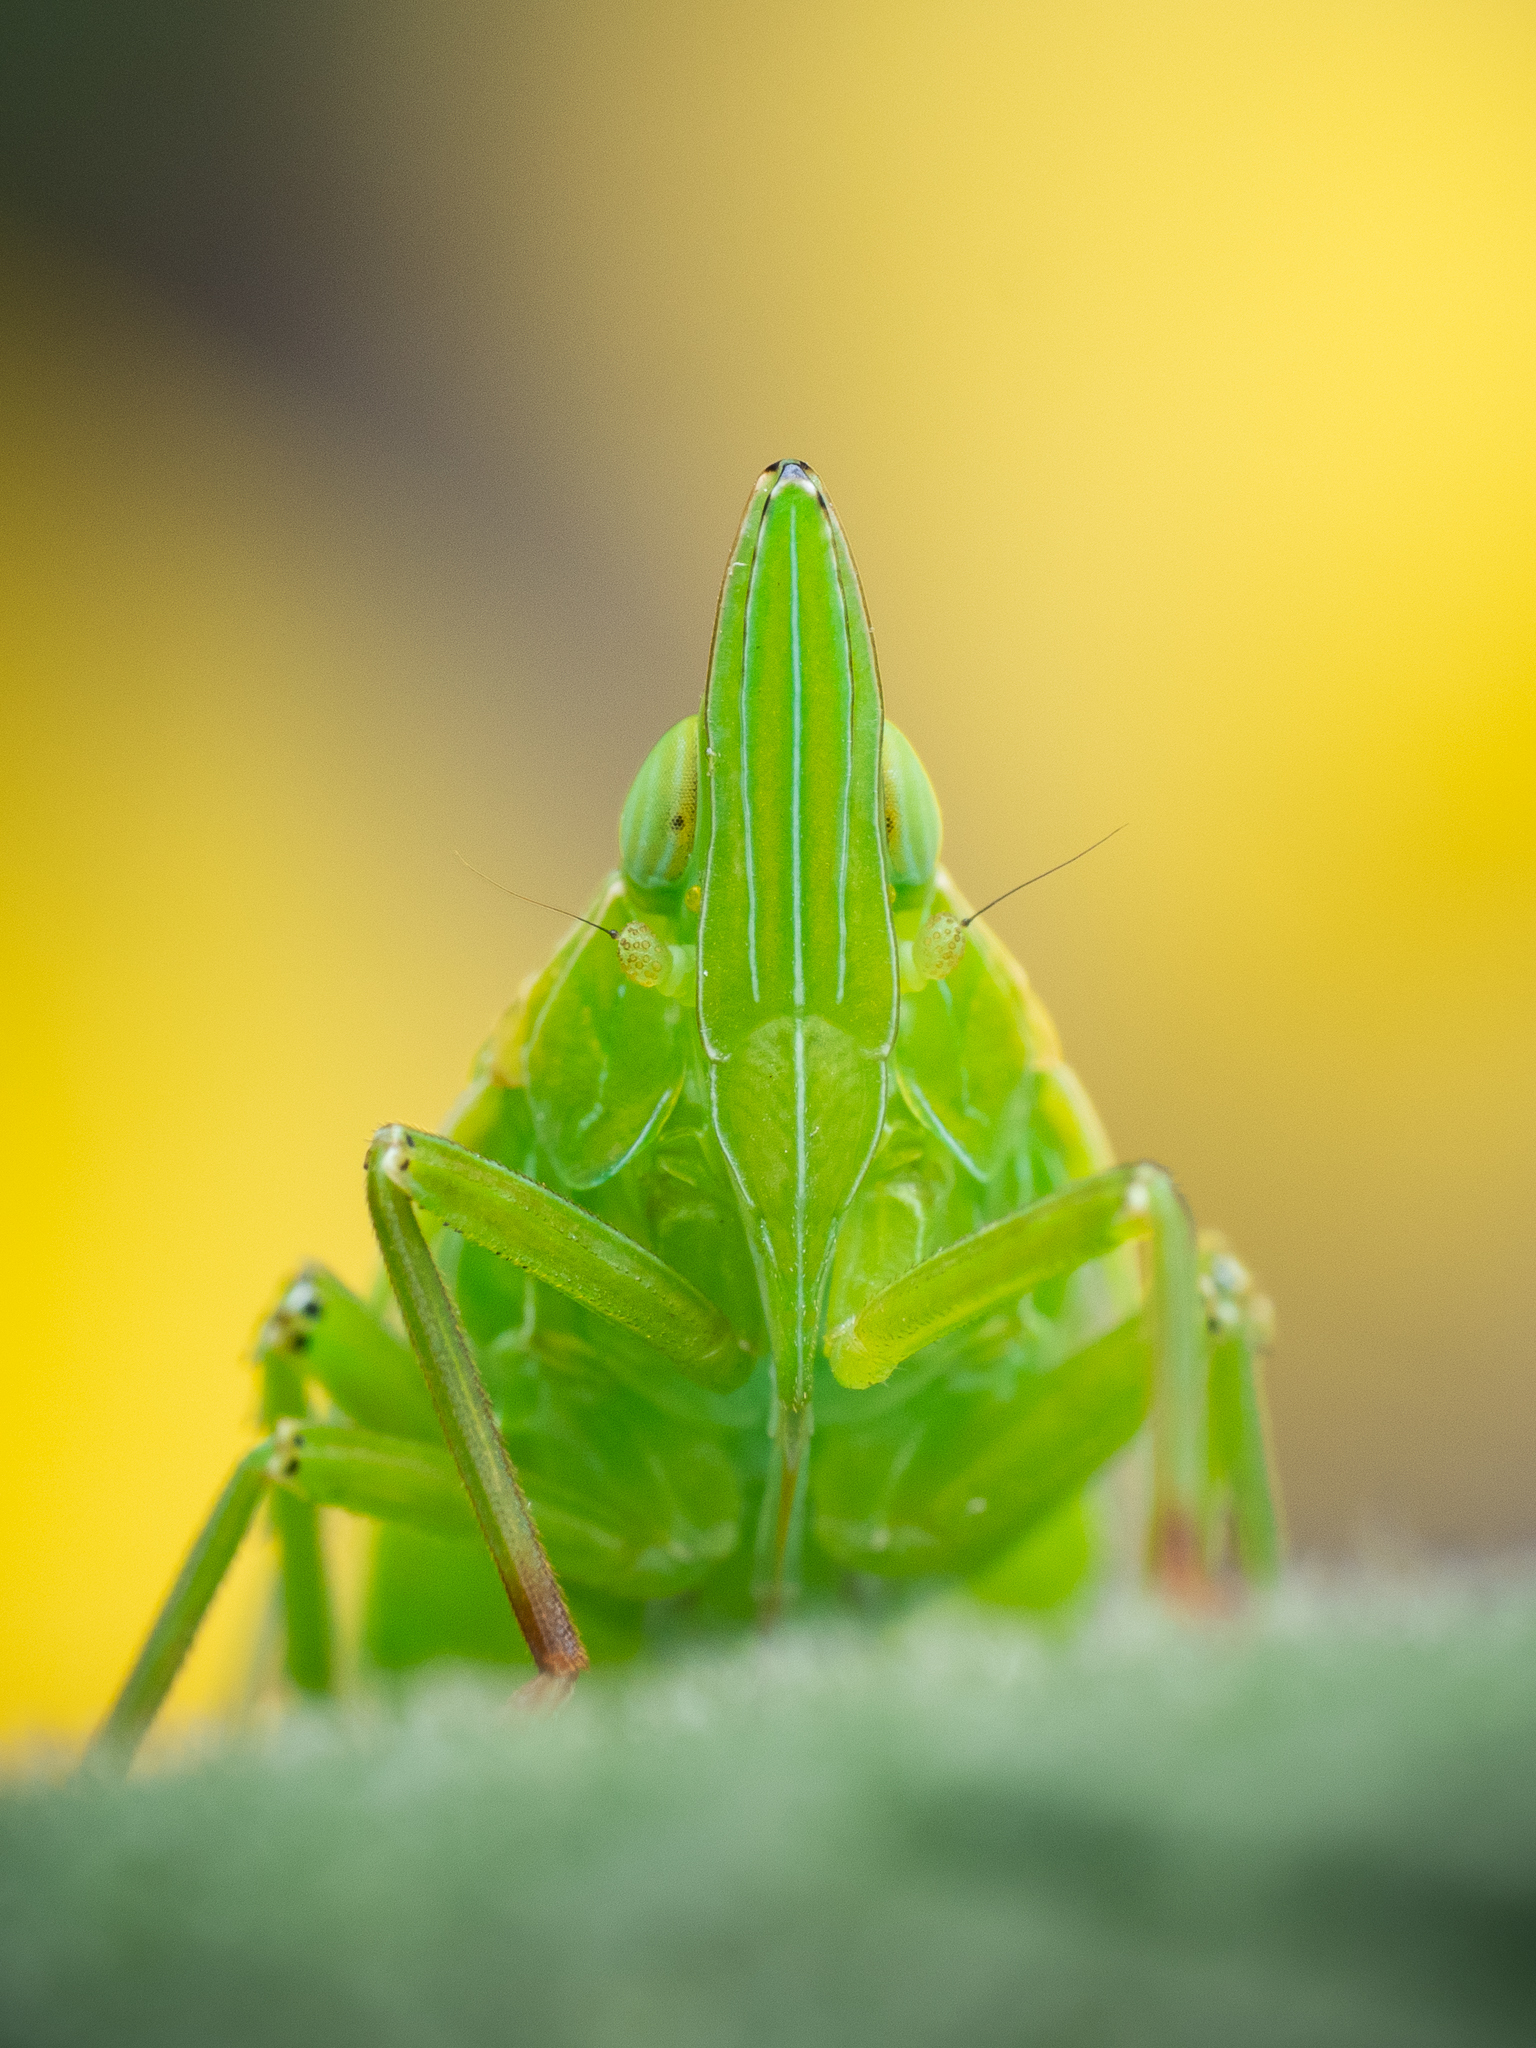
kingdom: Animalia
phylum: Arthropoda
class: Insecta
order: Hemiptera
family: Dictyopharidae
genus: Dictyophara
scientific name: Dictyophara europaea
